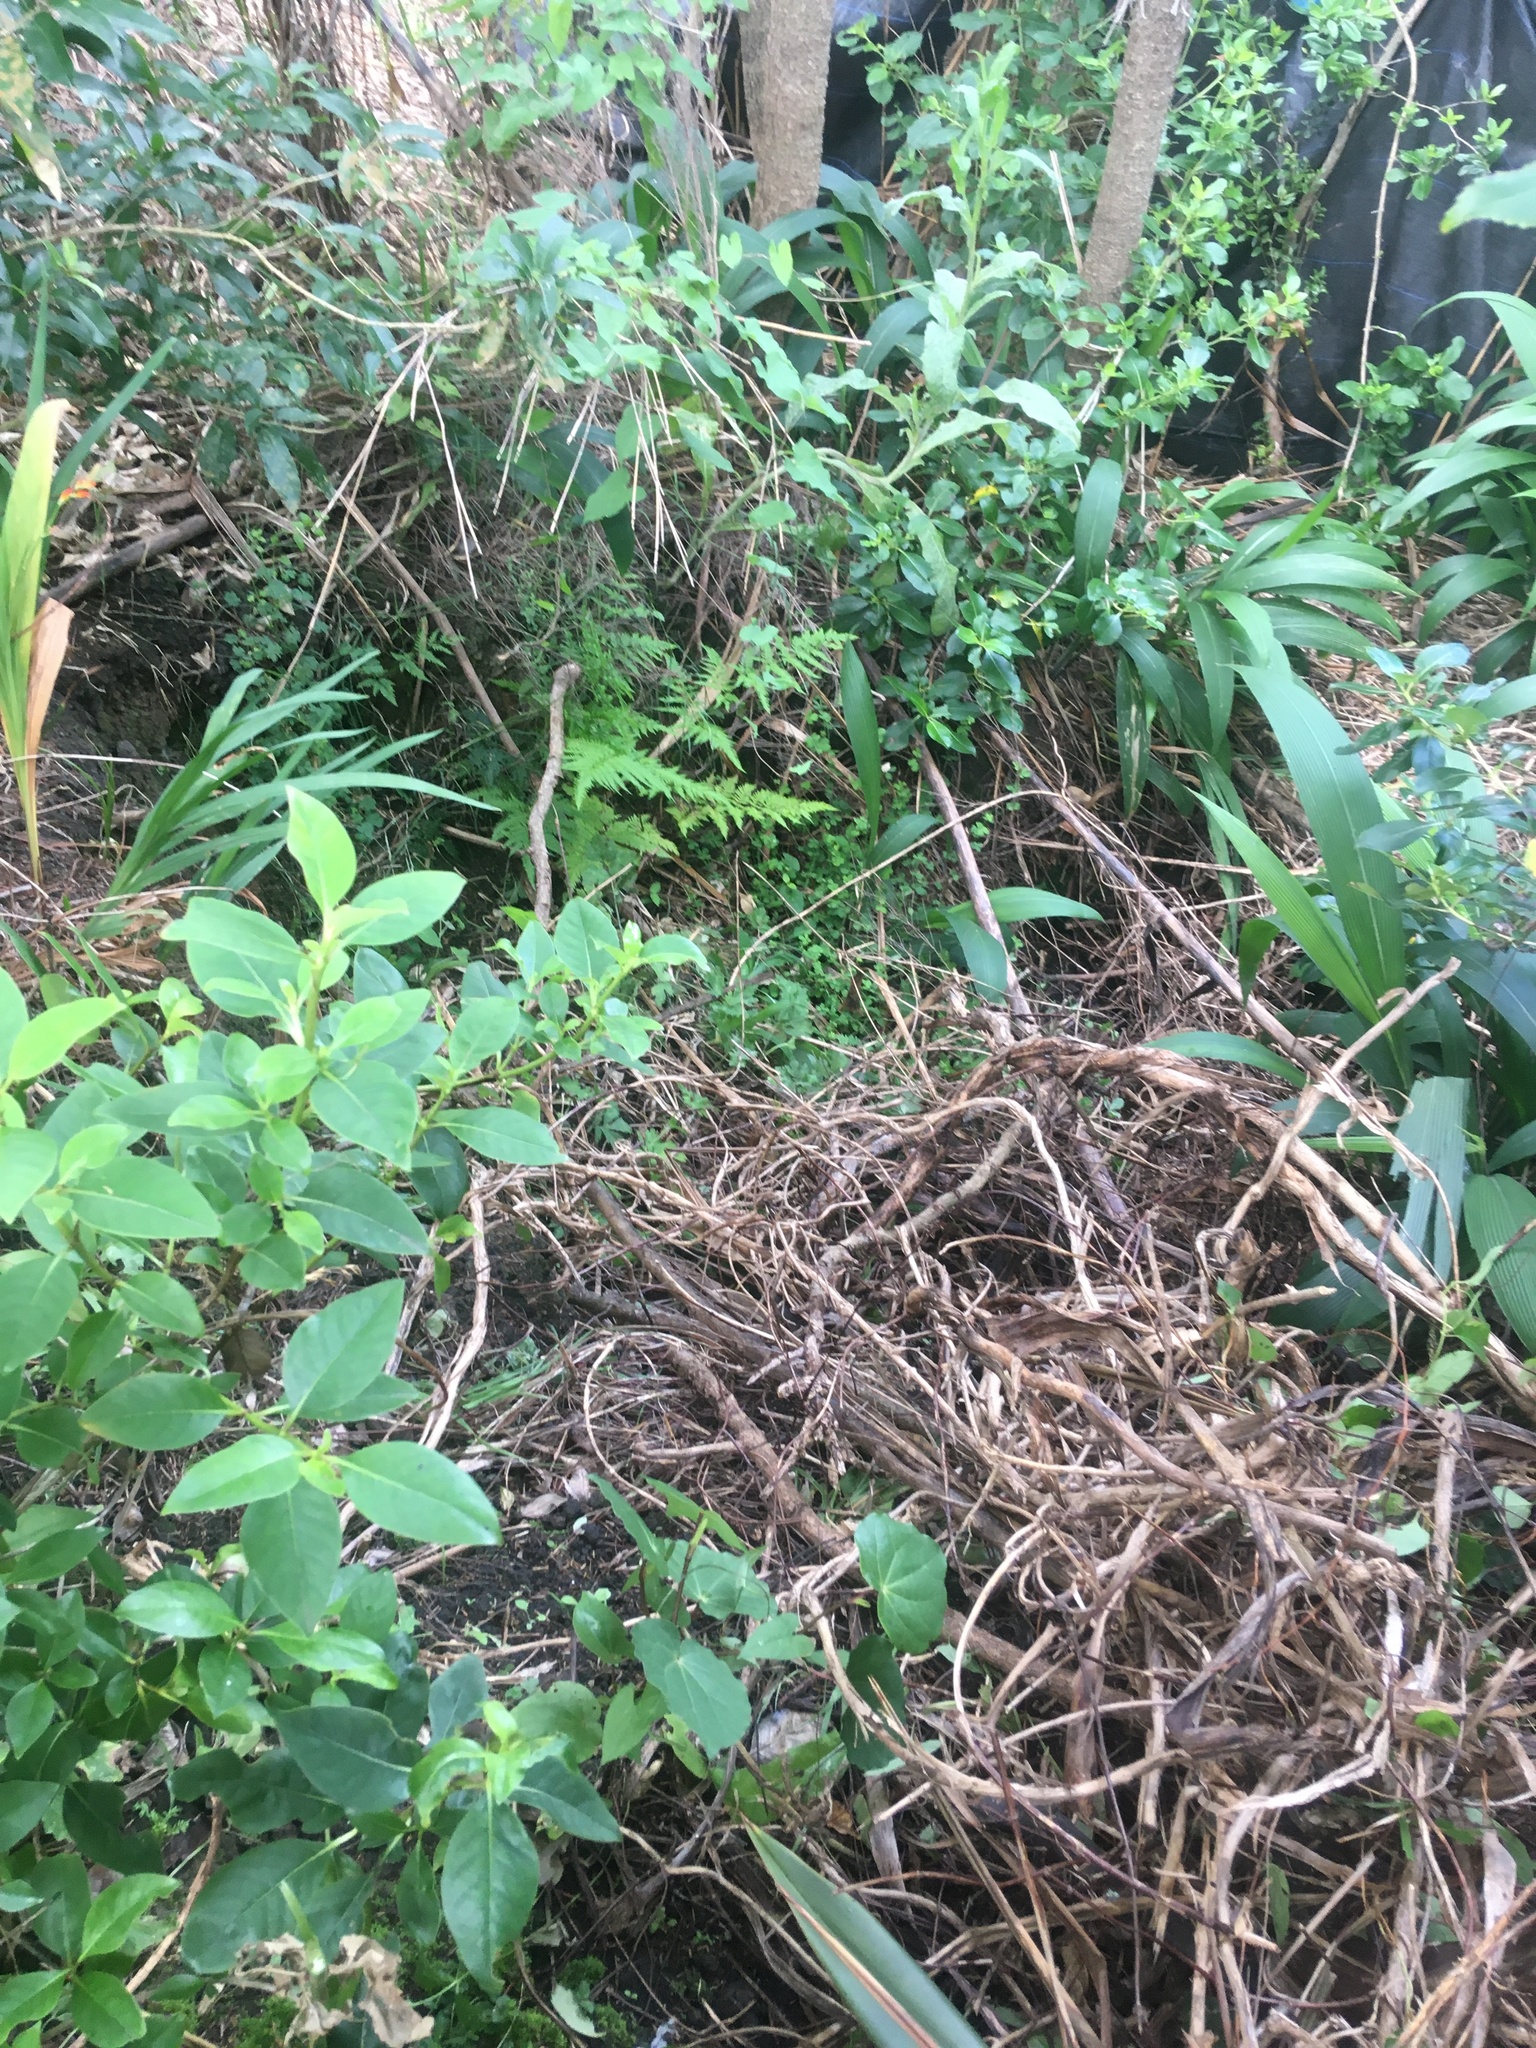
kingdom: Plantae
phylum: Tracheophyta
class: Magnoliopsida
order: Dipsacales
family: Caprifoliaceae
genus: Lonicera
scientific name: Lonicera japonica
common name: Japanese honeysuckle
